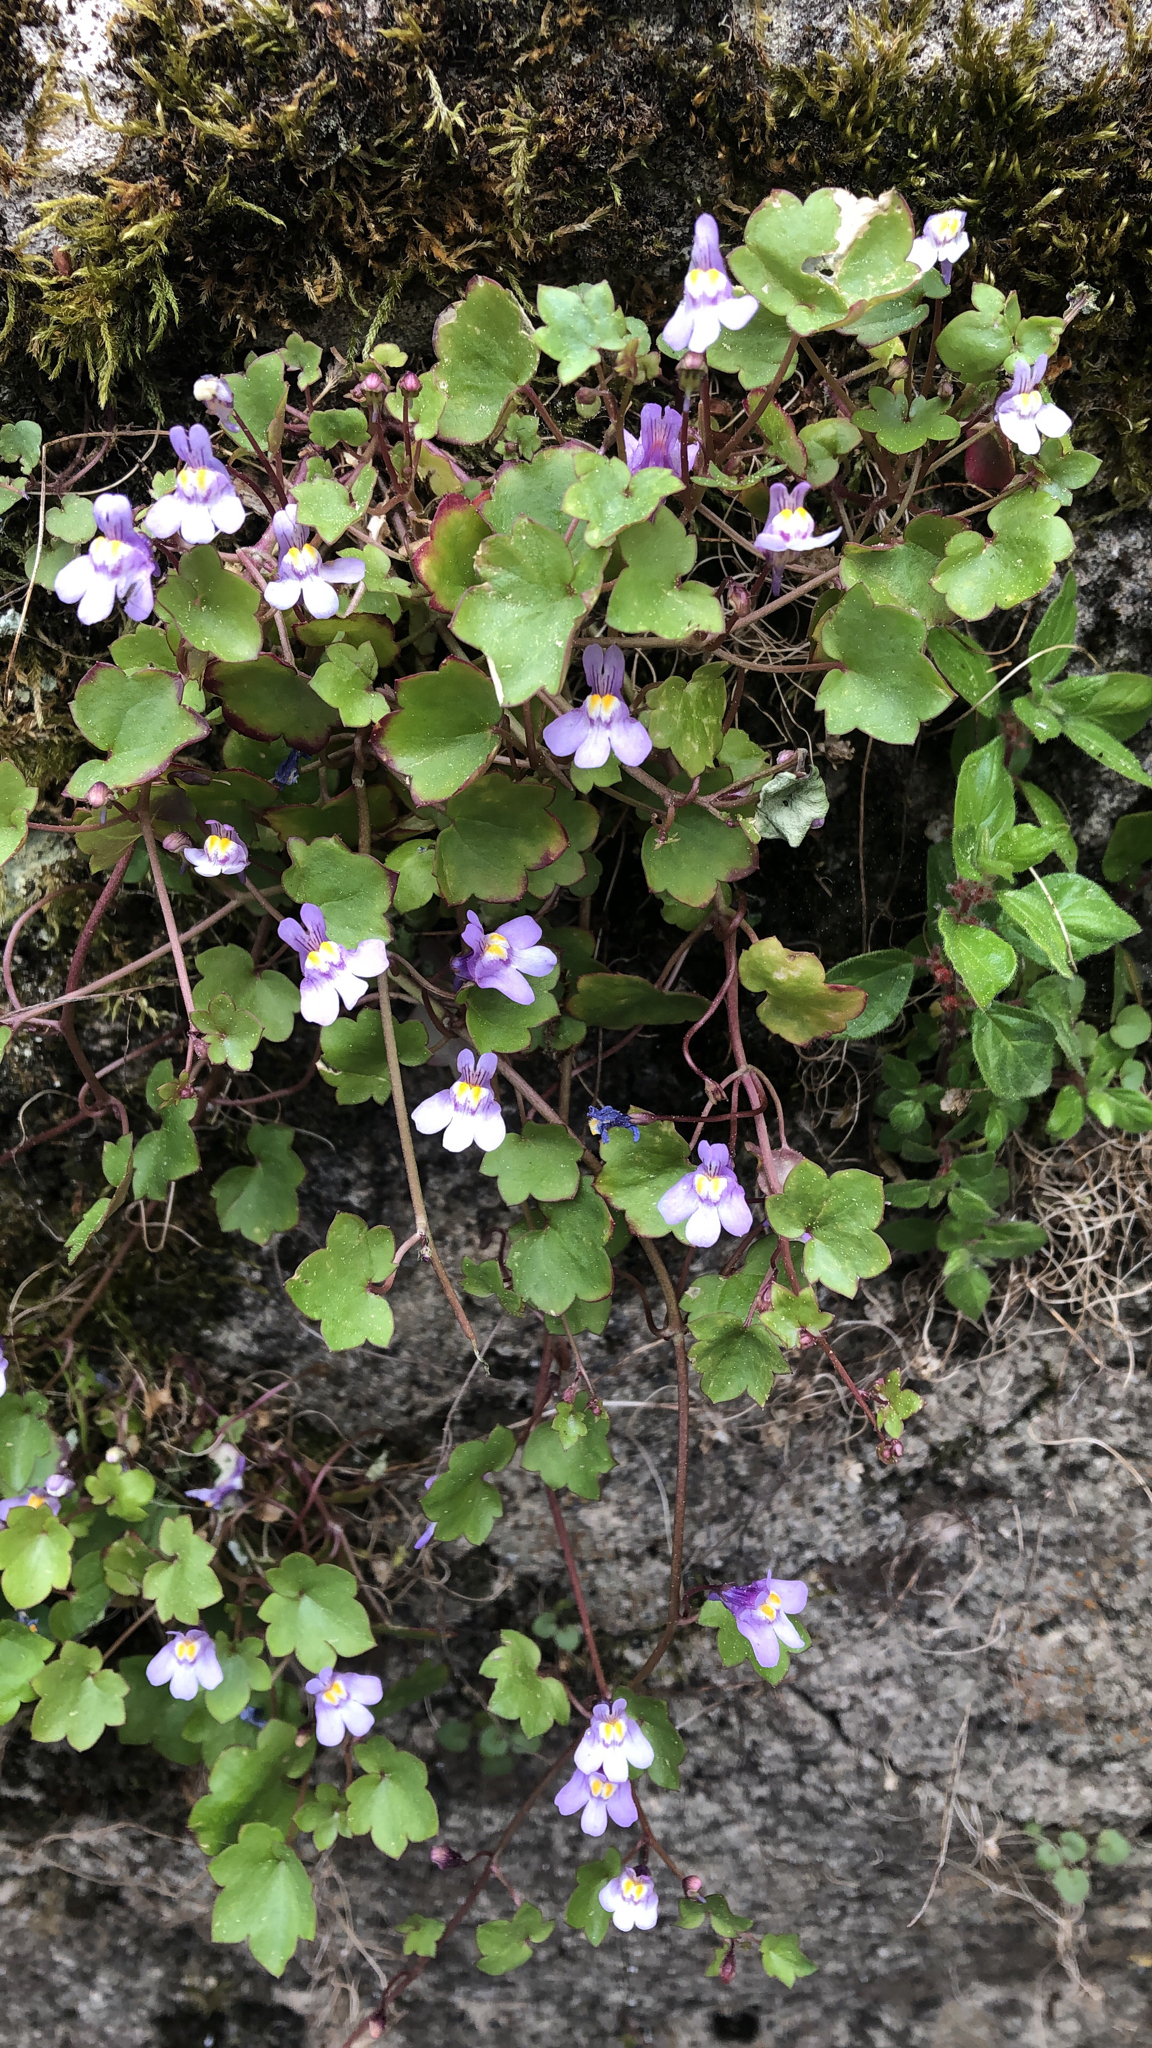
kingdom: Plantae
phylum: Tracheophyta
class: Magnoliopsida
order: Lamiales
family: Plantaginaceae
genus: Cymbalaria
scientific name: Cymbalaria muralis
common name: Ivy-leaved toadflax
